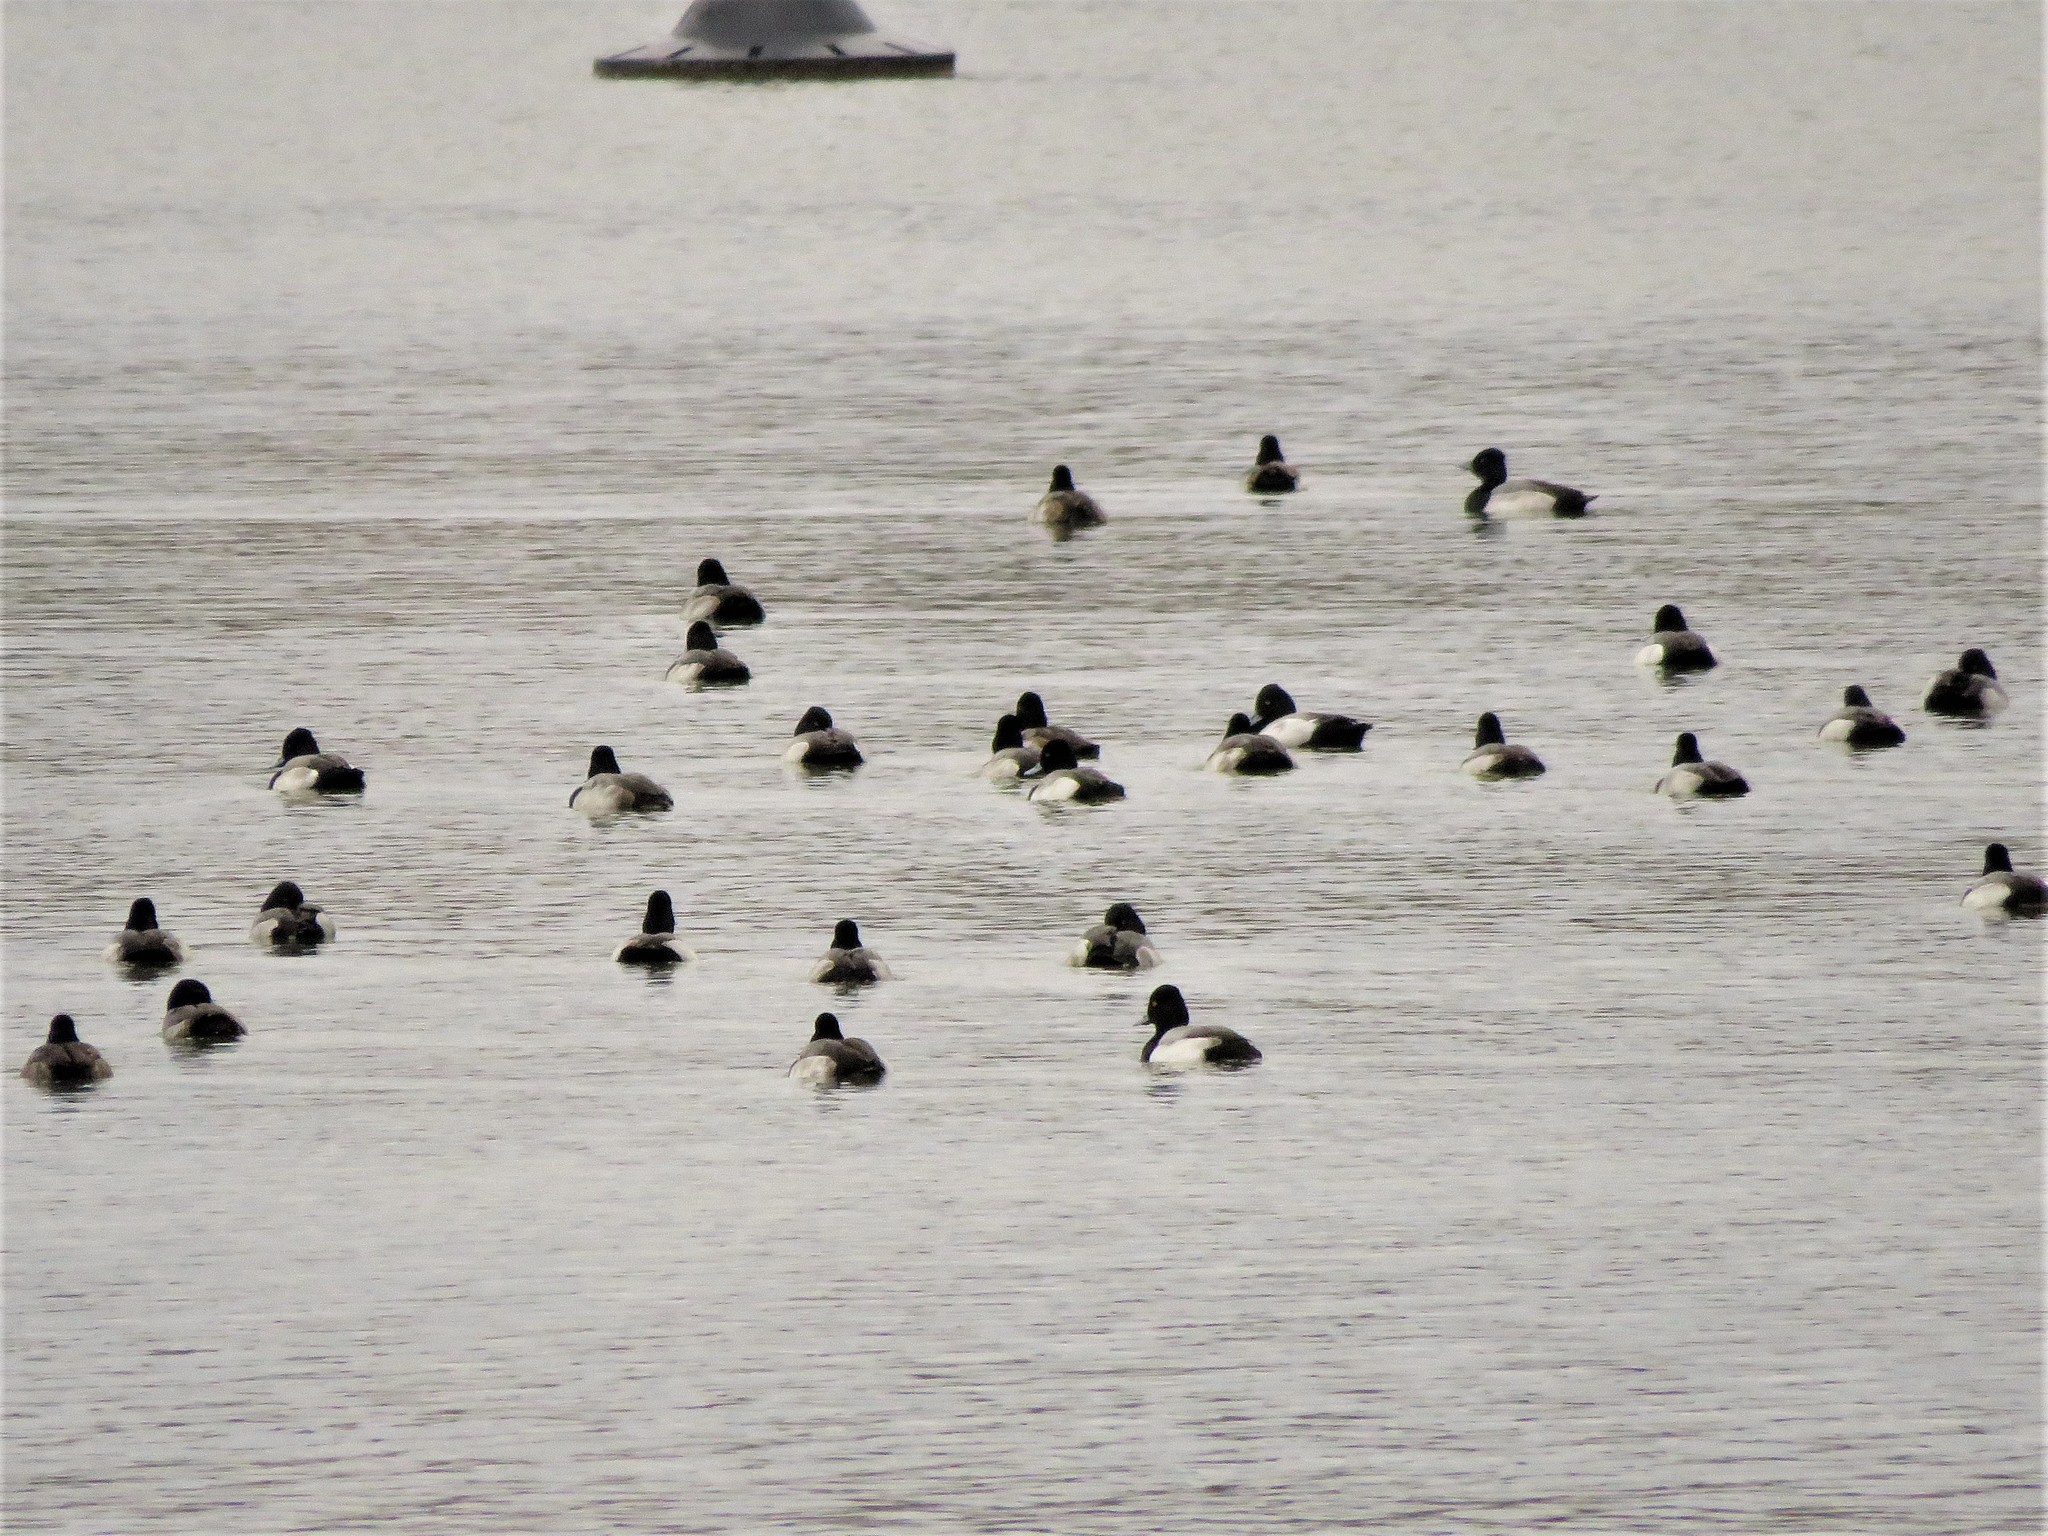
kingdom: Animalia
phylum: Chordata
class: Aves
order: Anseriformes
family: Anatidae
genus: Aythya
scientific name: Aythya affinis
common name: Lesser scaup
